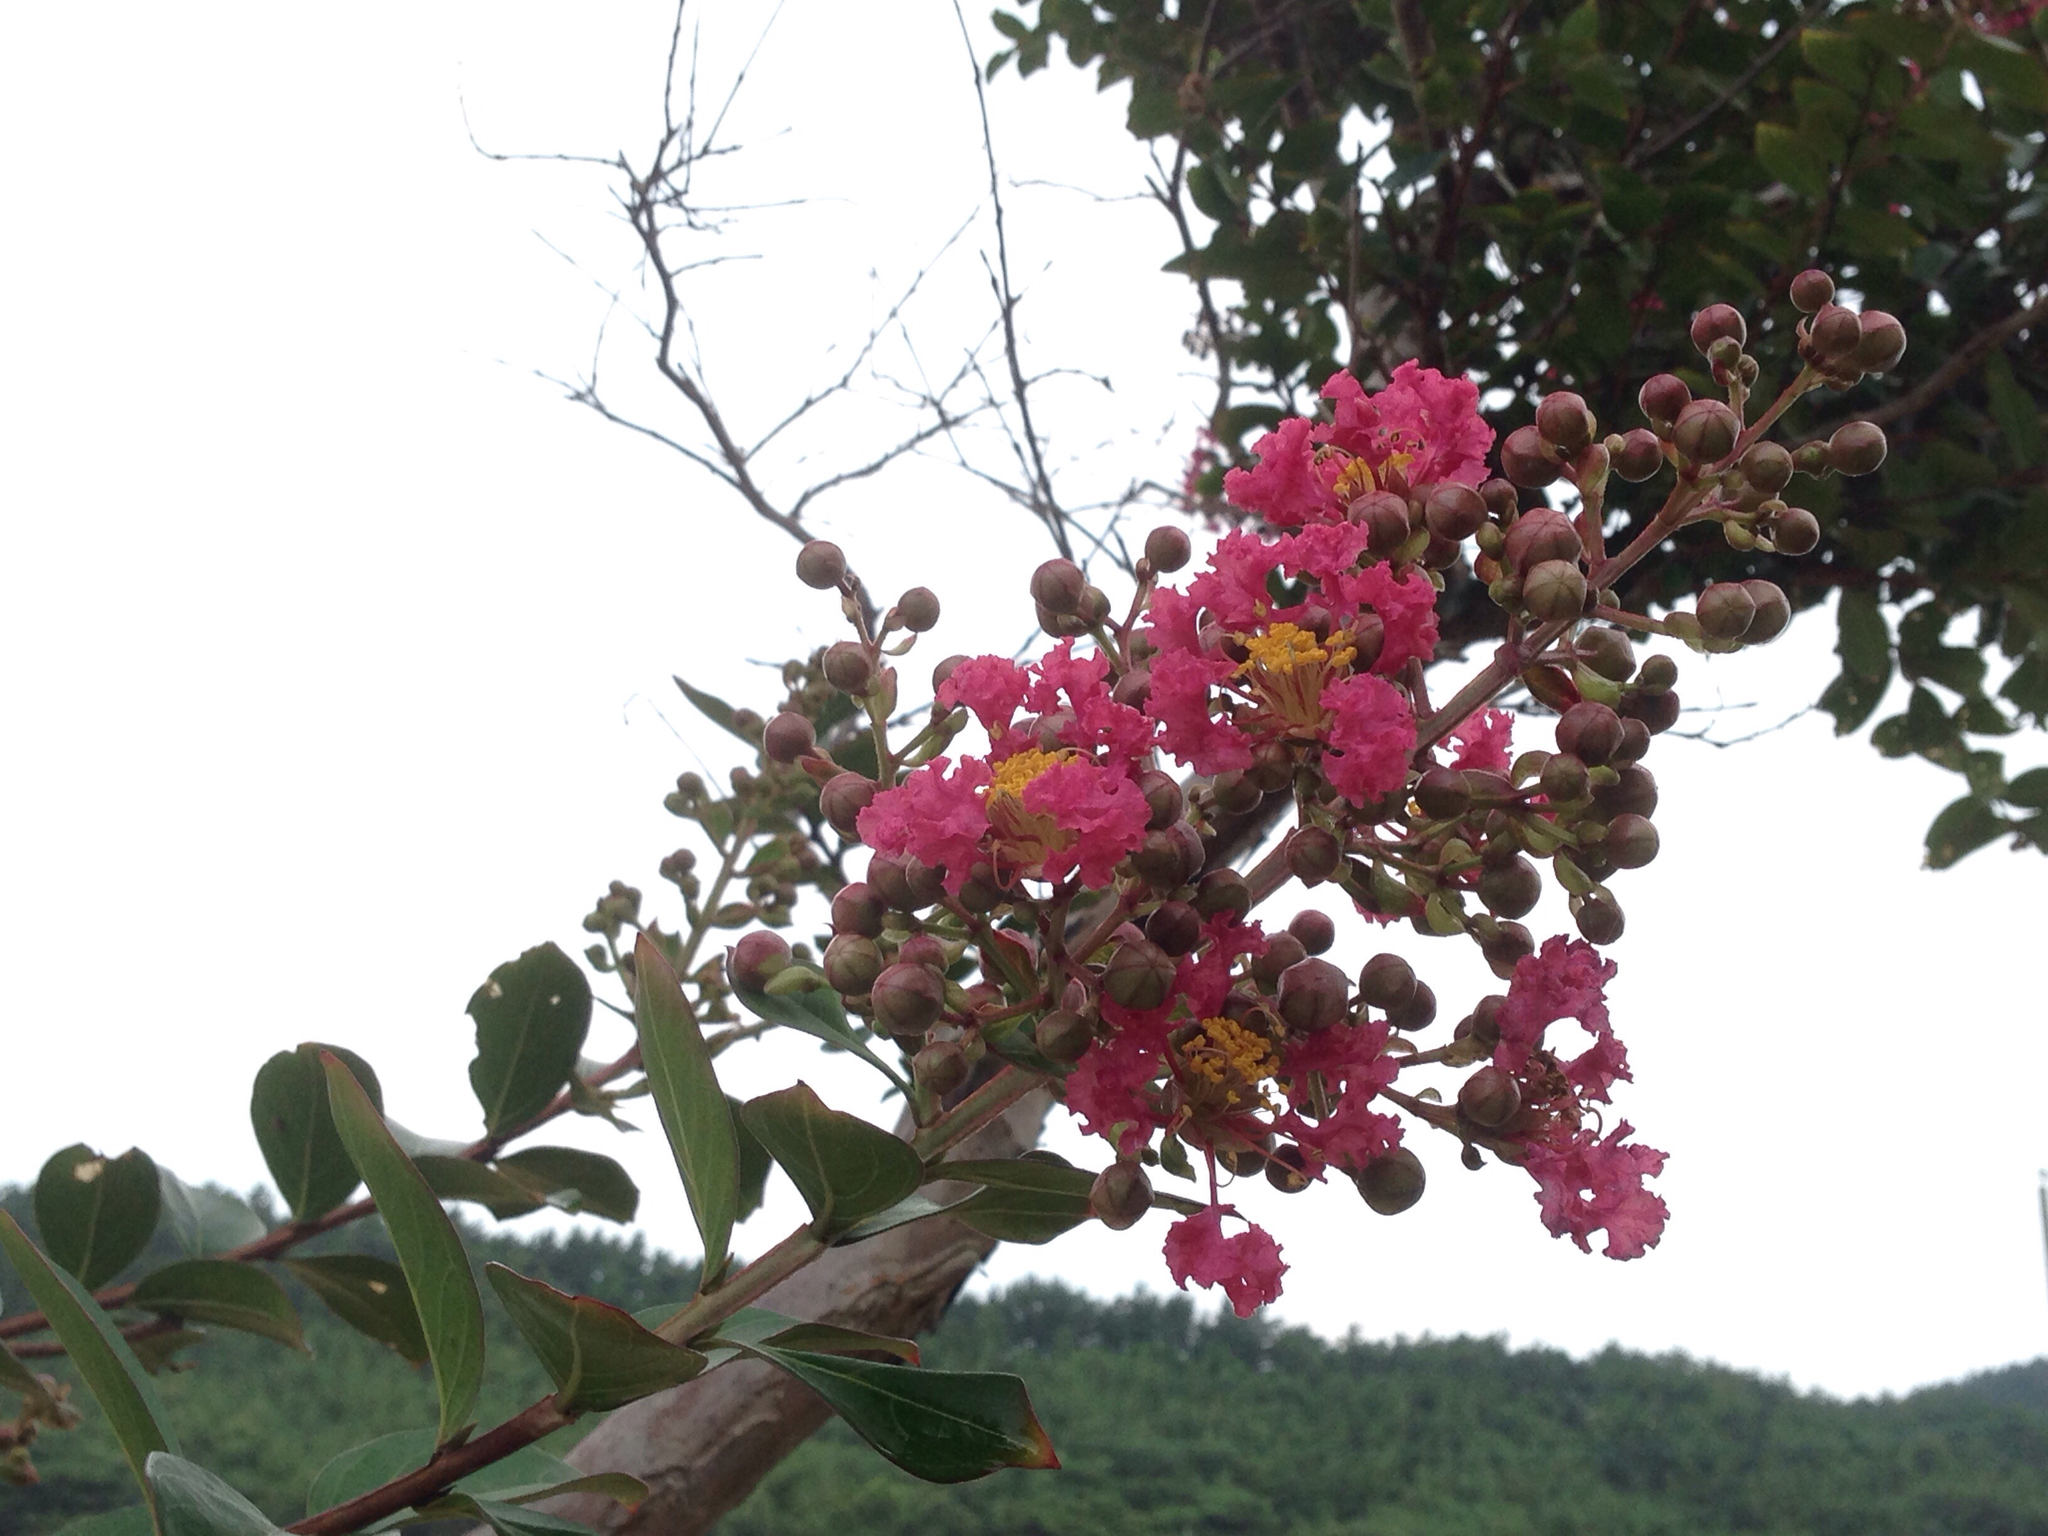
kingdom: Plantae
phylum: Tracheophyta
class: Magnoliopsida
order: Myrtales
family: Lythraceae
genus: Lagerstroemia
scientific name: Lagerstroemia indica
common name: Crape-myrtle
